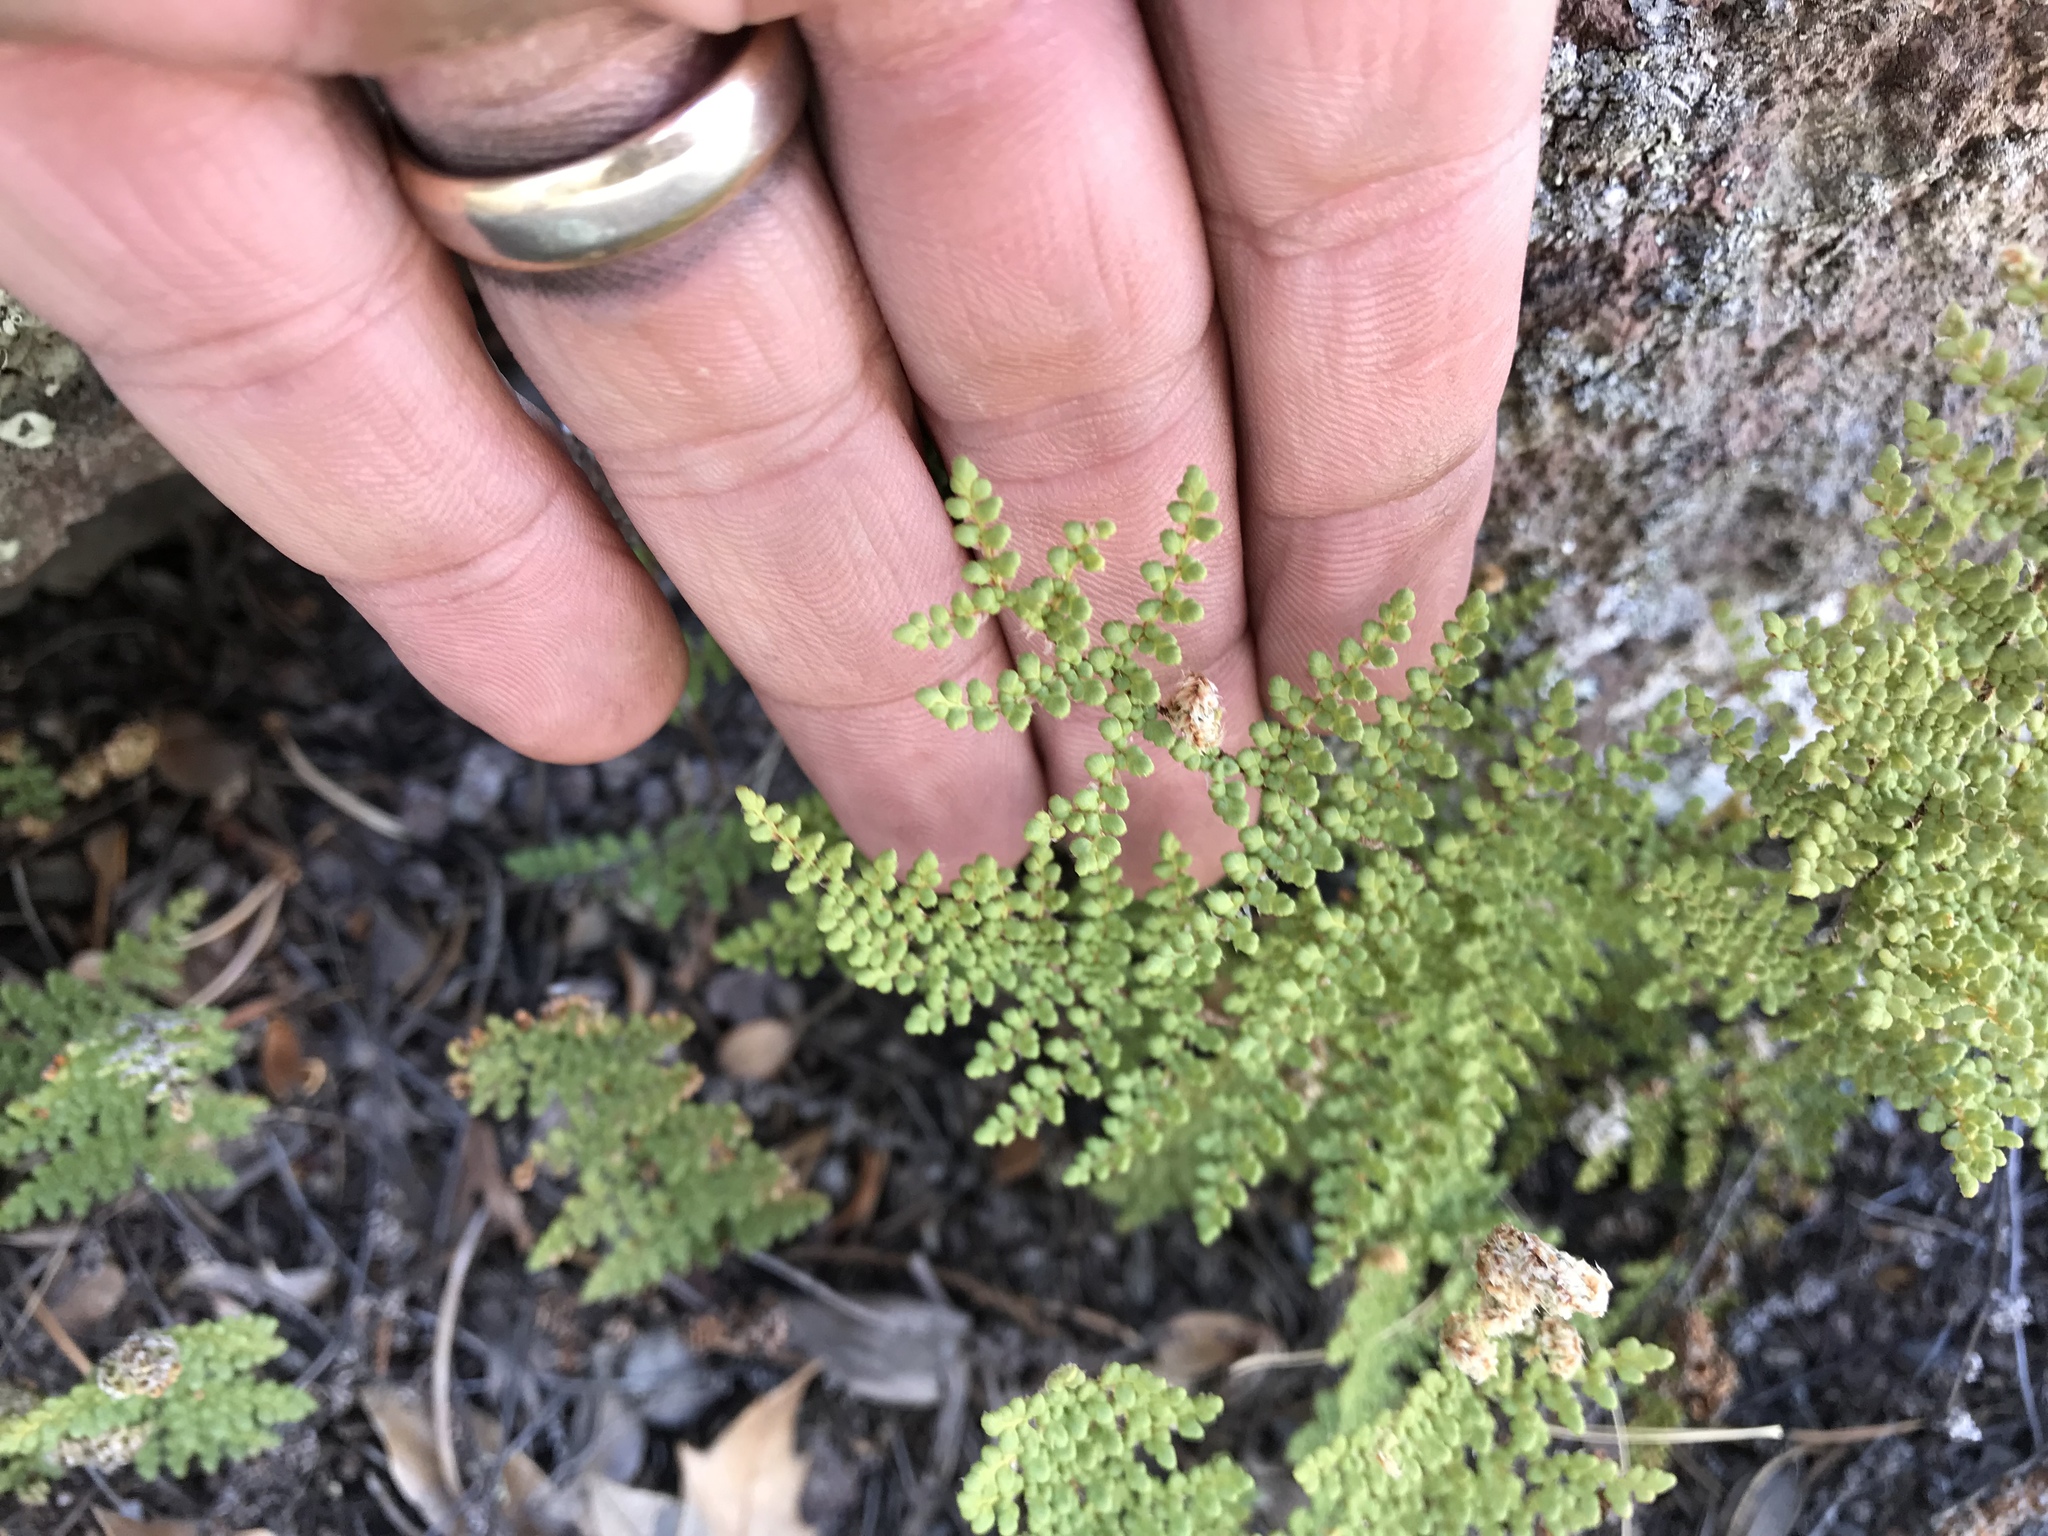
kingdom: Plantae
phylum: Tracheophyta
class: Polypodiopsida
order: Polypodiales
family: Pteridaceae
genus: Myriopteris
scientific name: Myriopteris fendleri
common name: Fendler's lip fern
